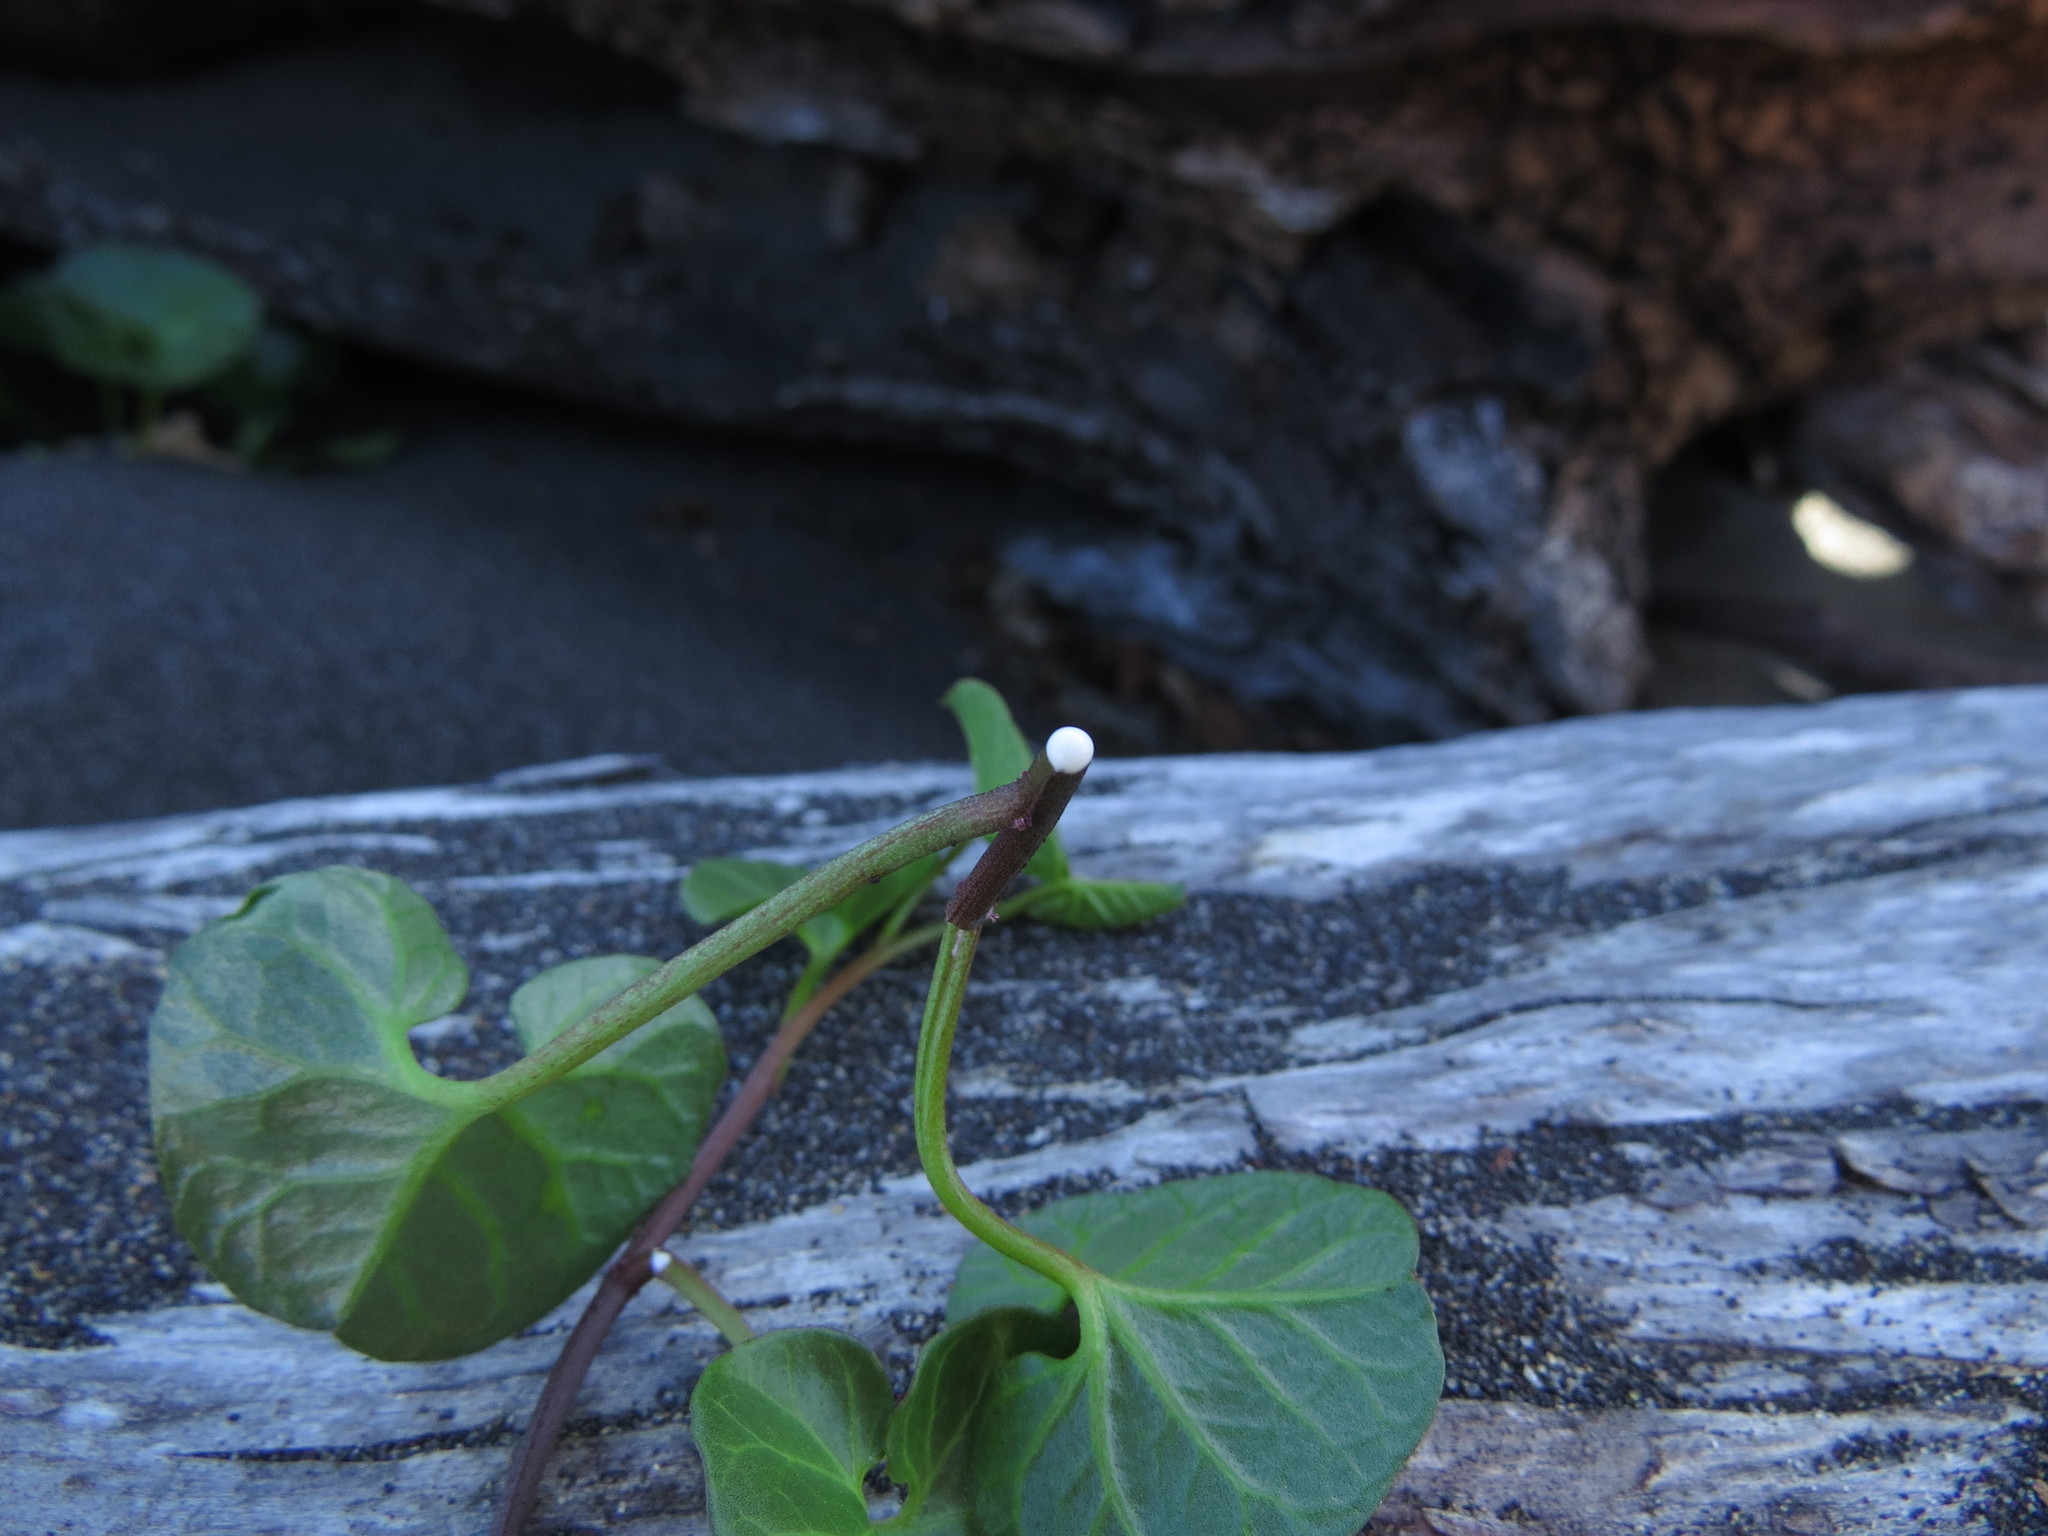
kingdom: Plantae
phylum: Tracheophyta
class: Magnoliopsida
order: Solanales
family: Convolvulaceae
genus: Calystegia
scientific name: Calystegia soldanella
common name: Sea bindweed
